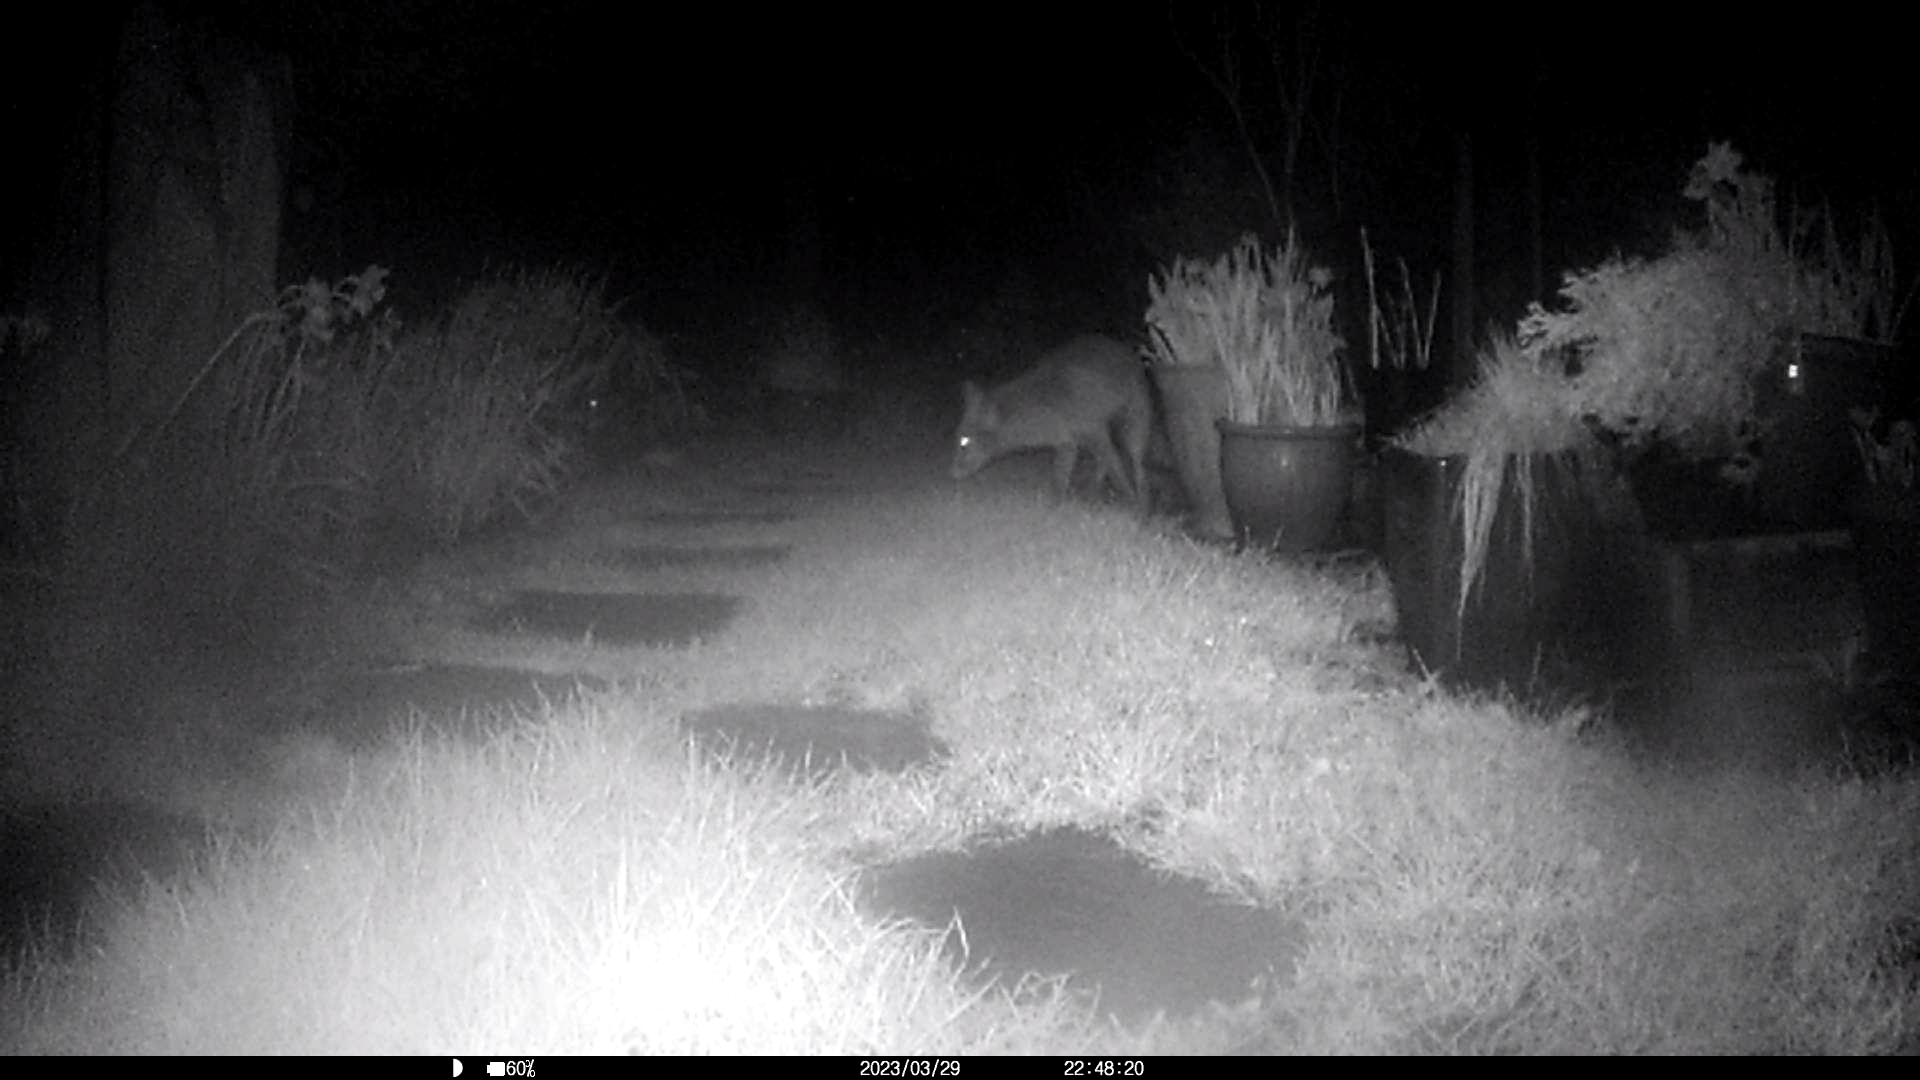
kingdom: Animalia
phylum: Chordata
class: Mammalia
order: Carnivora
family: Canidae
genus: Vulpes
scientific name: Vulpes vulpes
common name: Red fox
